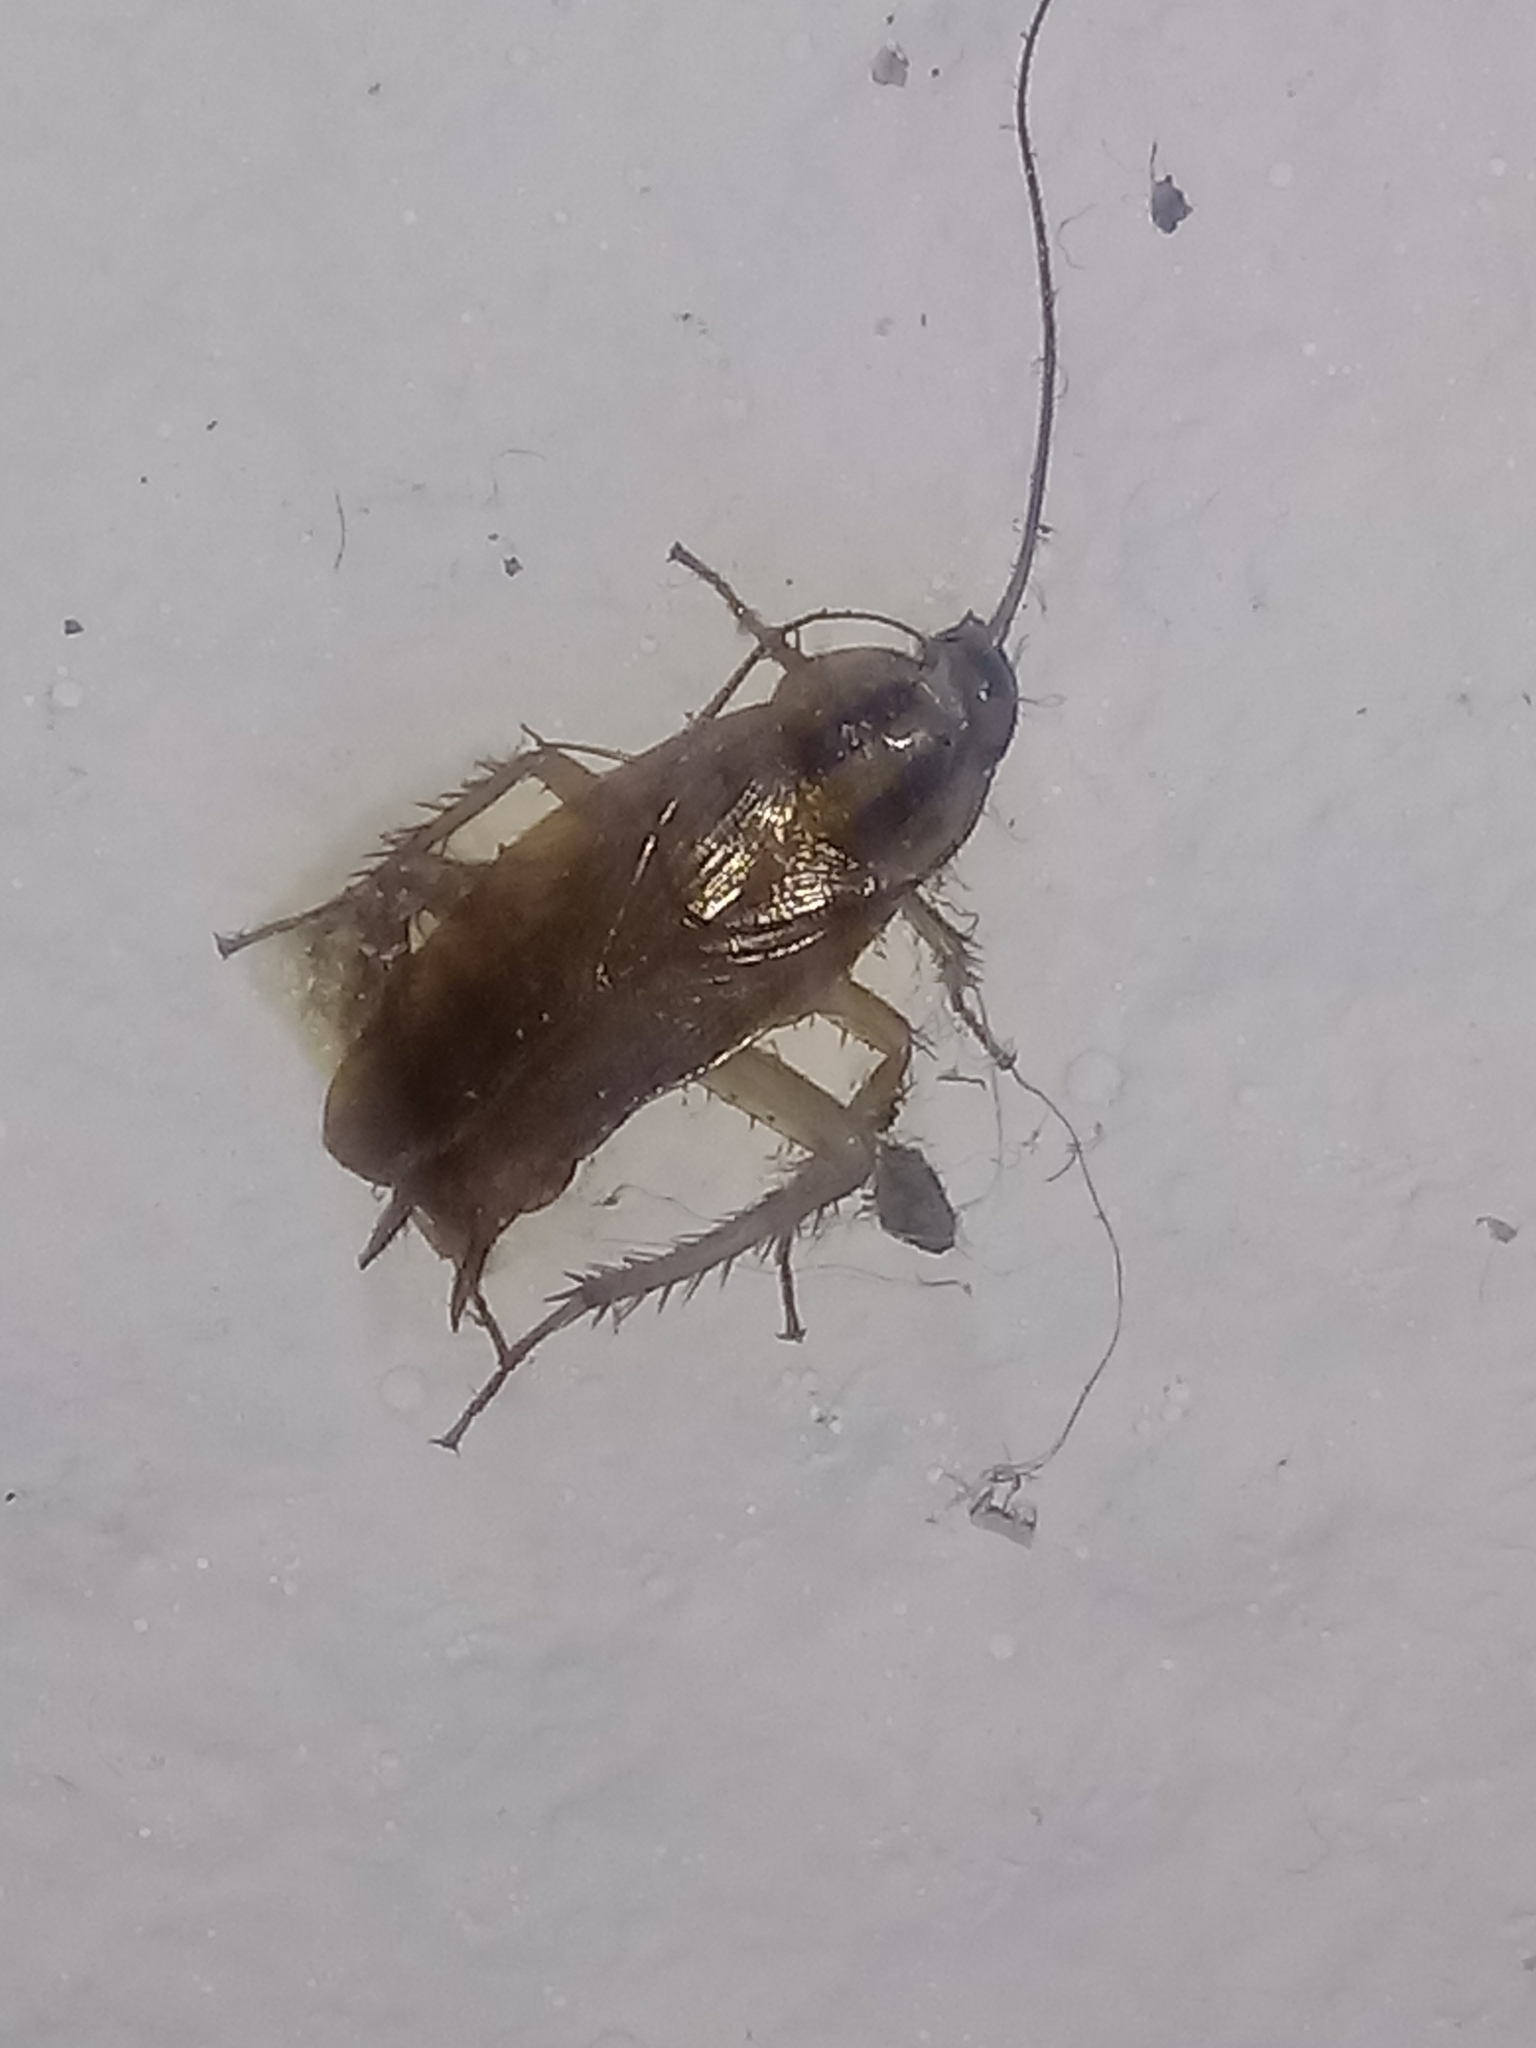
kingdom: Animalia
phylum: Arthropoda
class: Insecta
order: Blattodea
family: Ectobiidae
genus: Blattella
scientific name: Blattella germanica
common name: German cockroach
